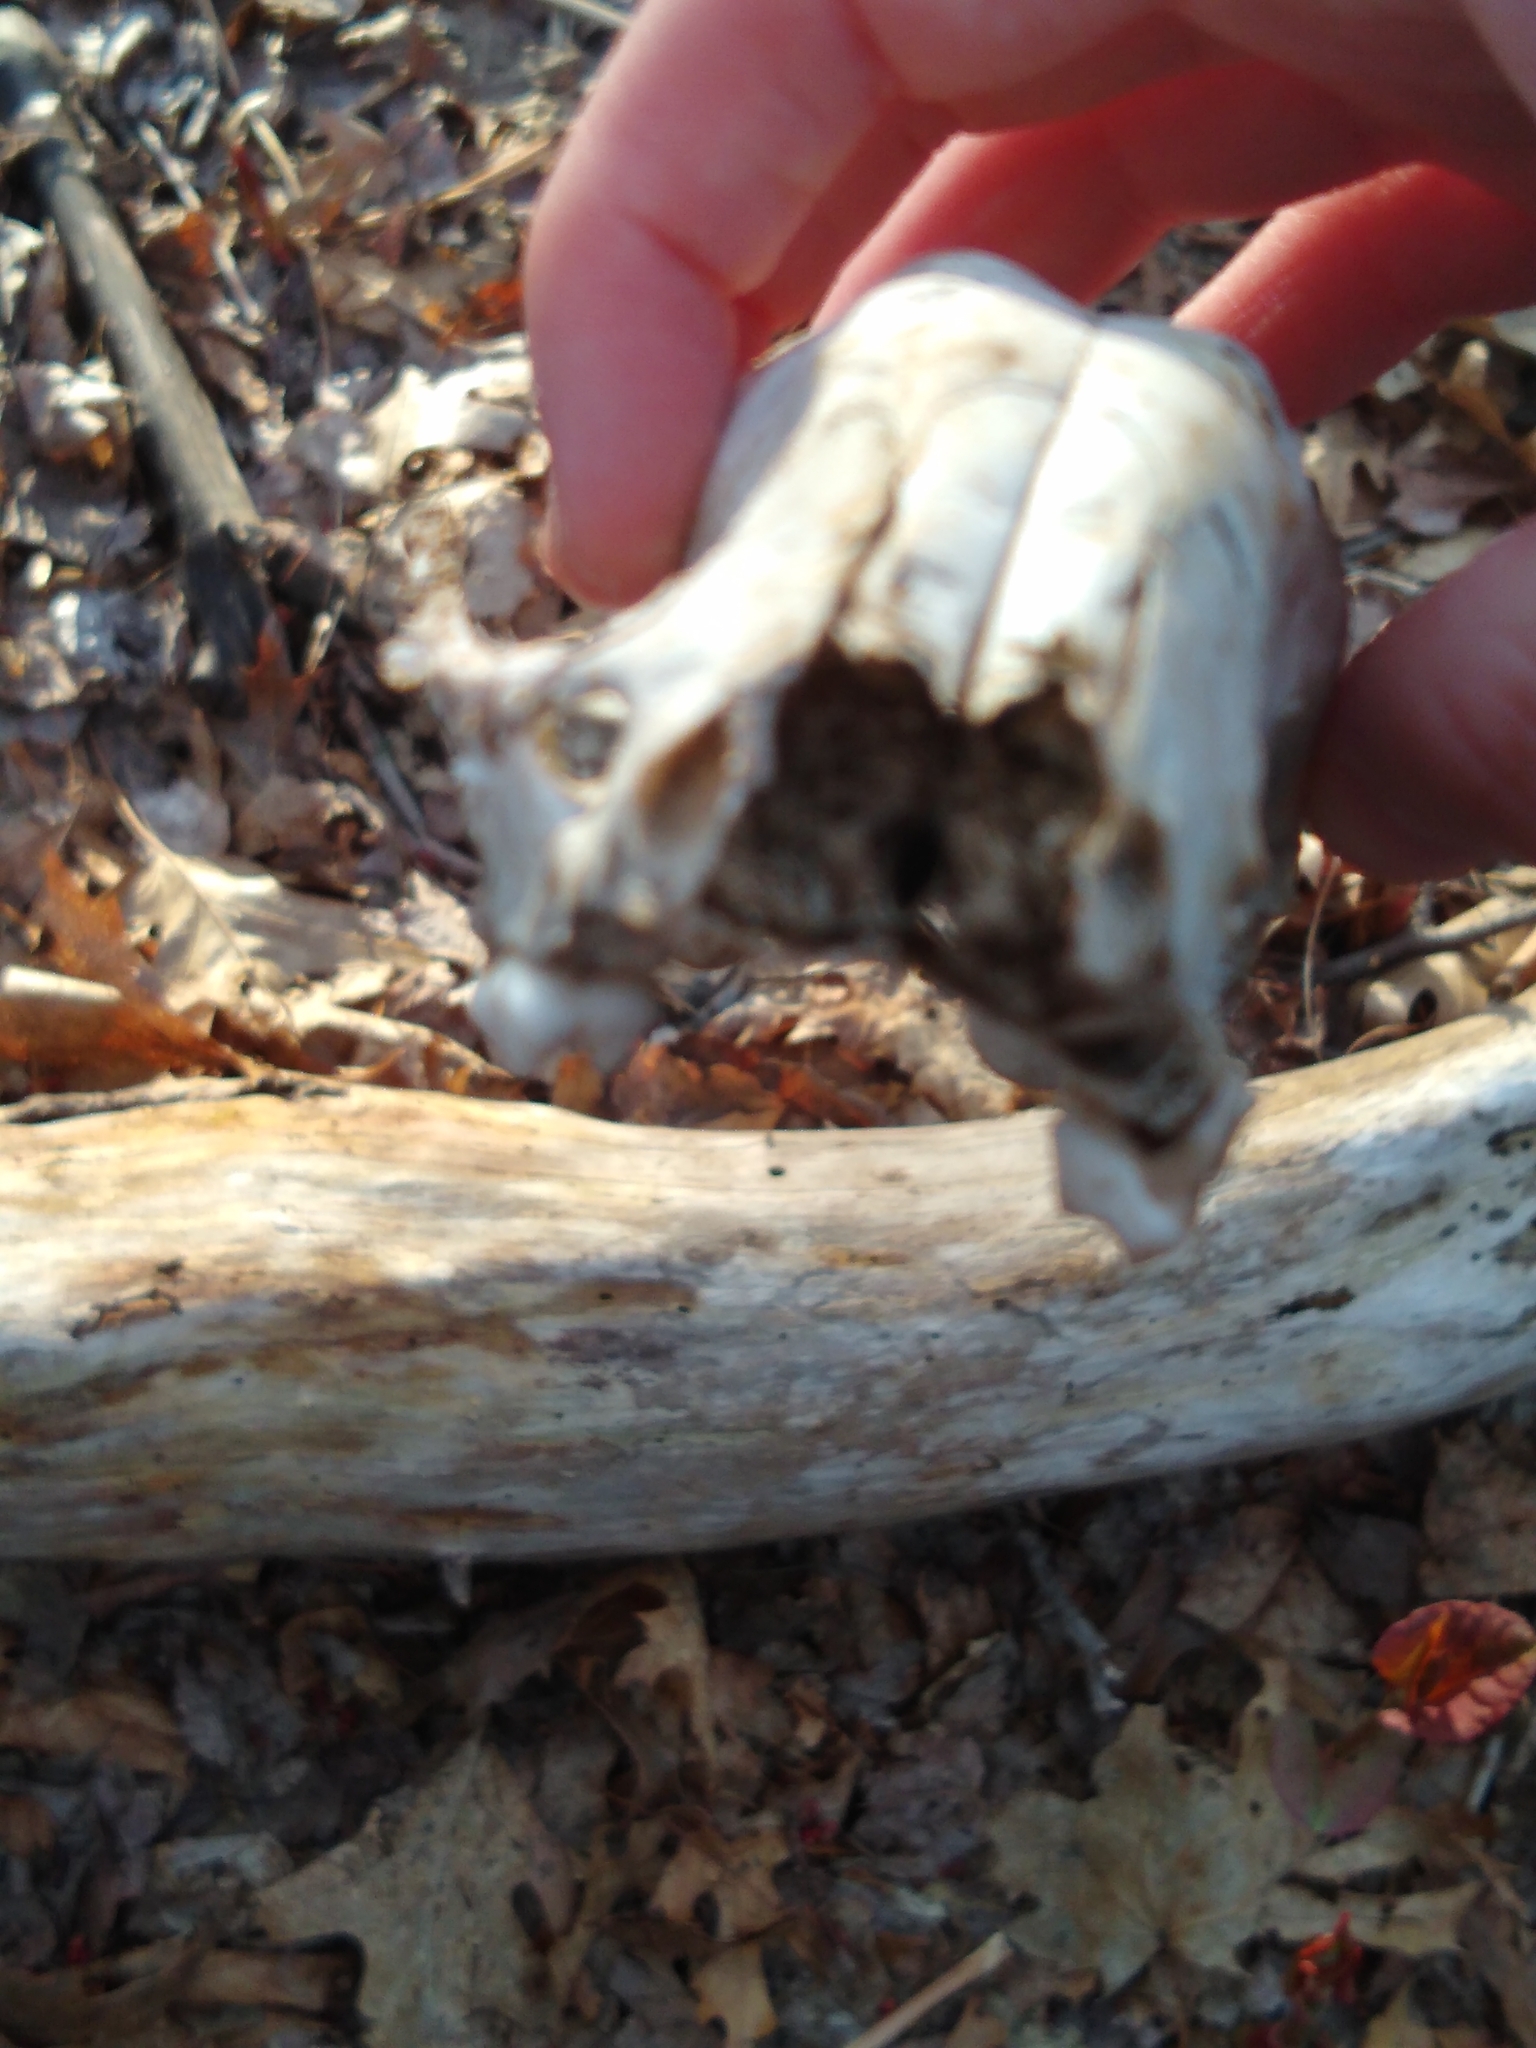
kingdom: Animalia
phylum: Chordata
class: Mammalia
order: Carnivora
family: Procyonidae
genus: Procyon
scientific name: Procyon lotor
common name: Raccoon
